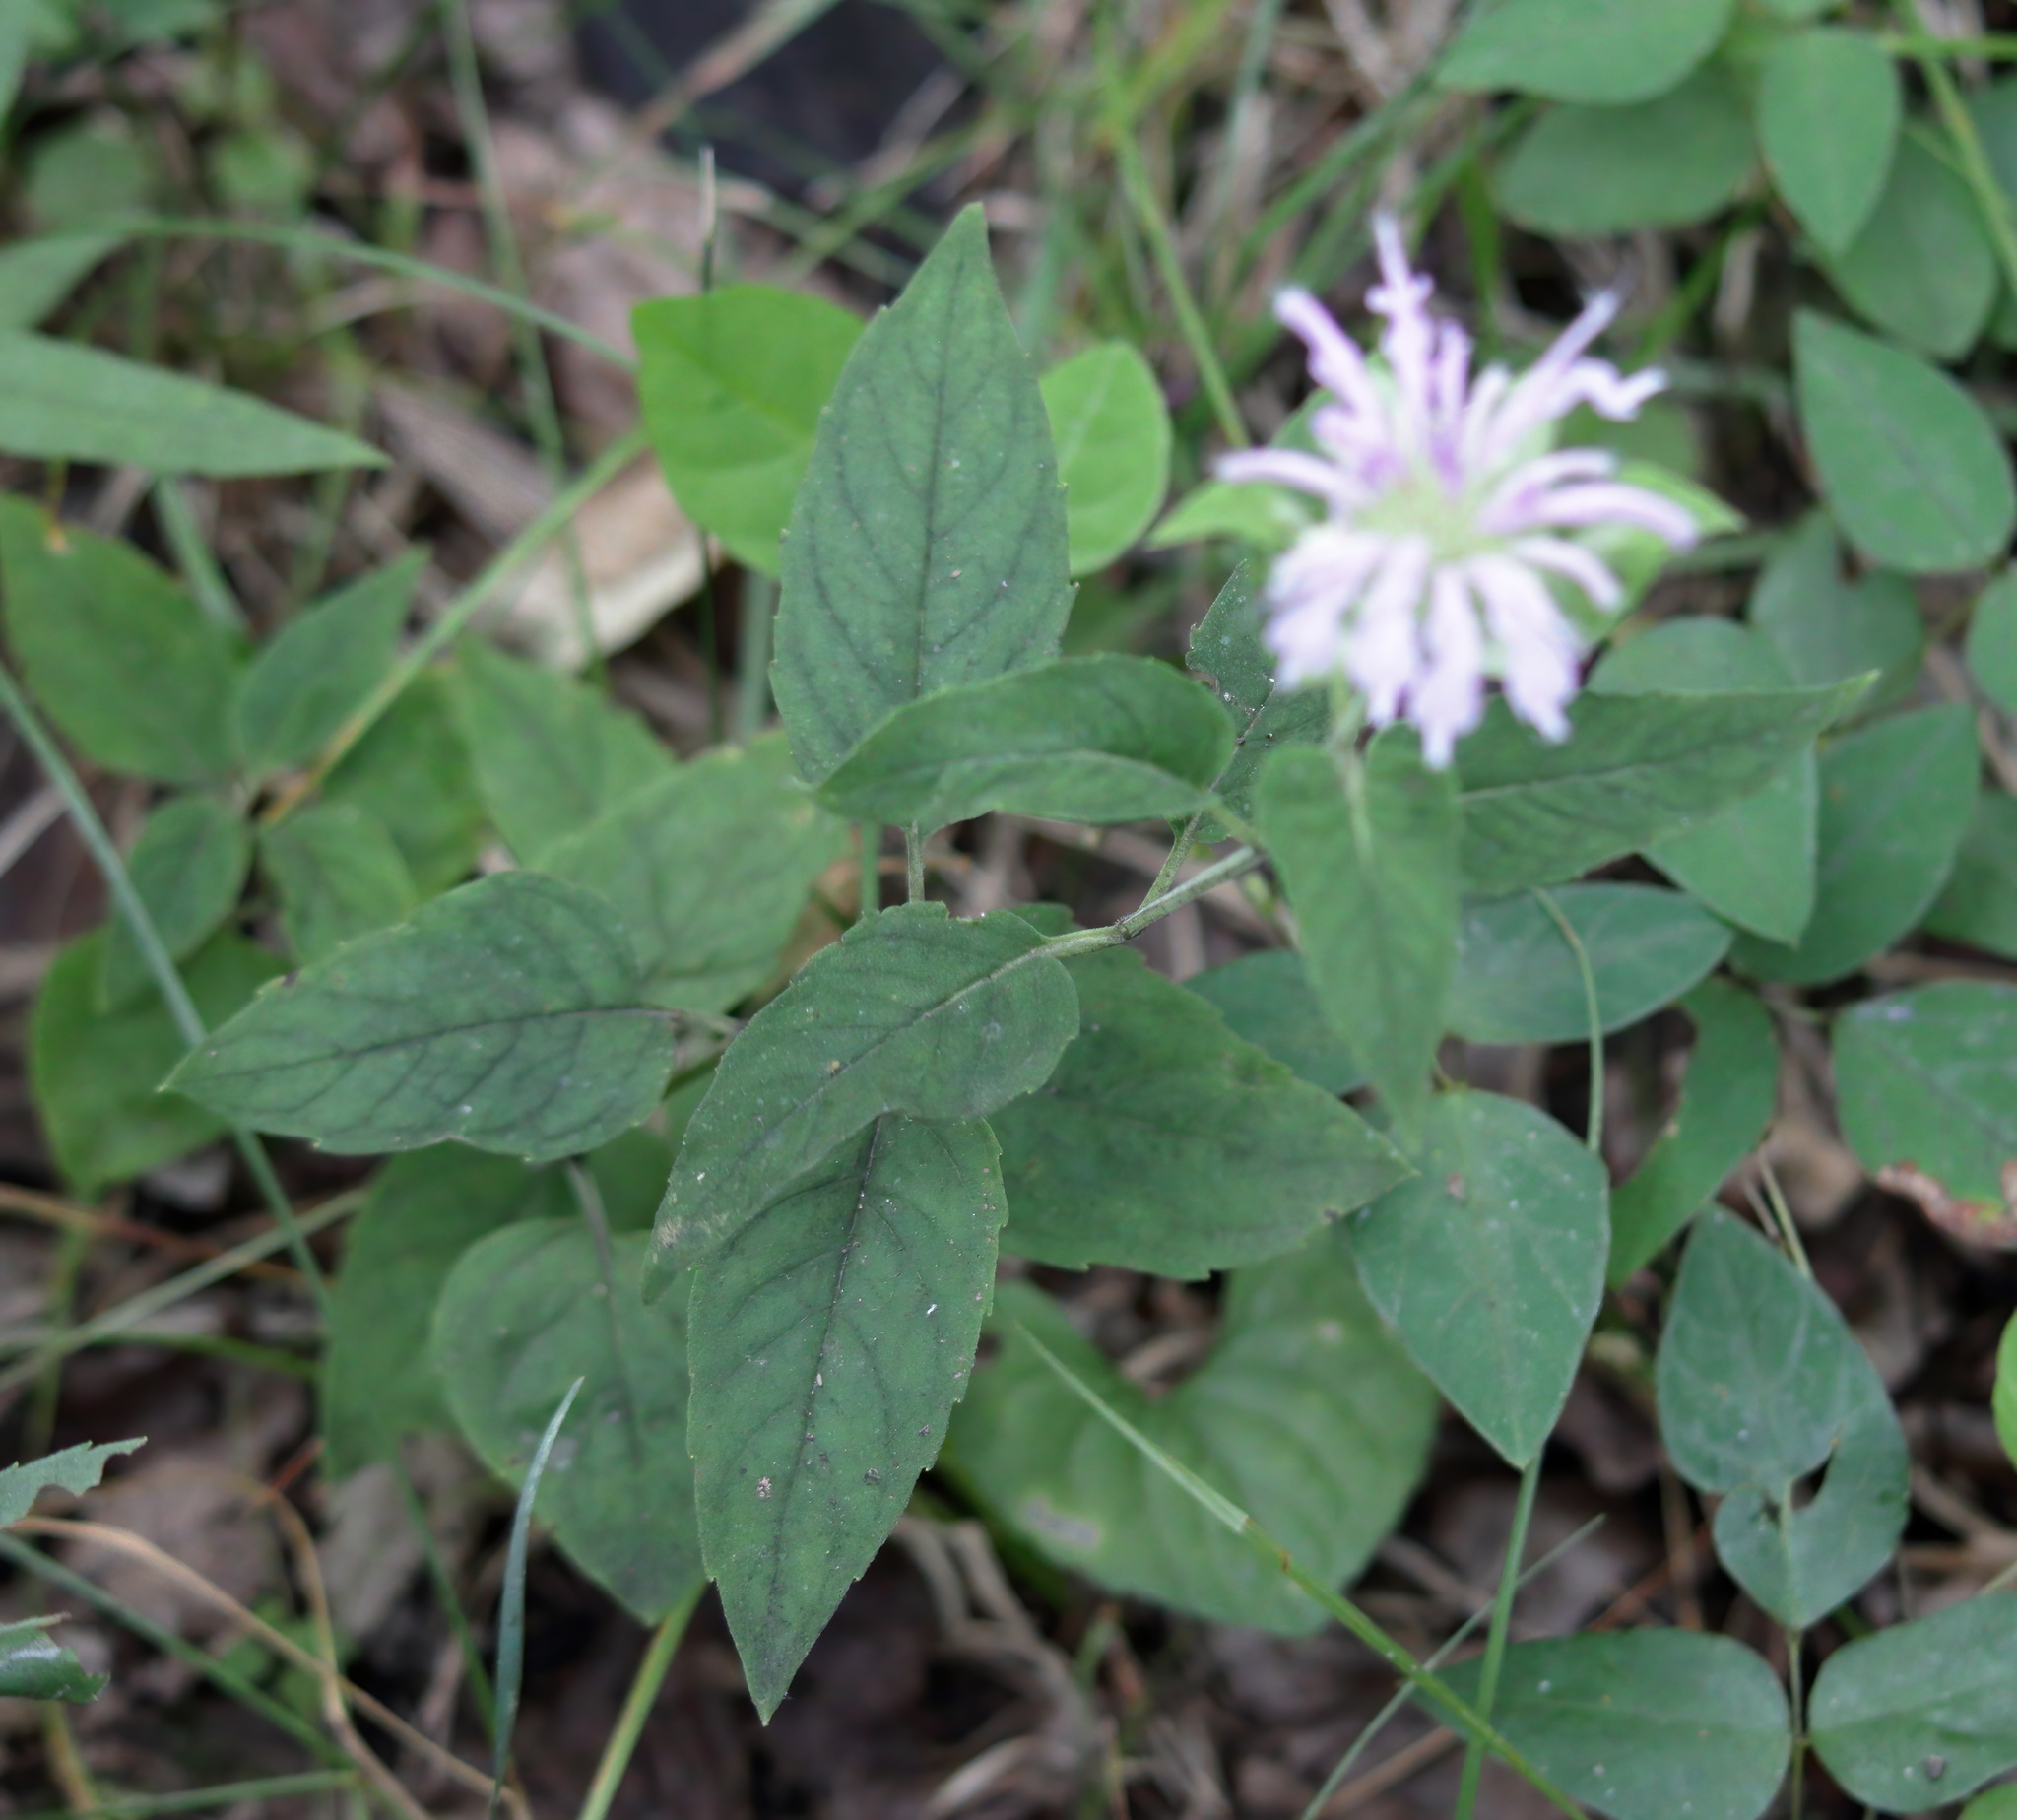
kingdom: Plantae
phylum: Tracheophyta
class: Magnoliopsida
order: Lamiales
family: Lamiaceae
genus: Monarda
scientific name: Monarda fistulosa
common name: Purple beebalm
